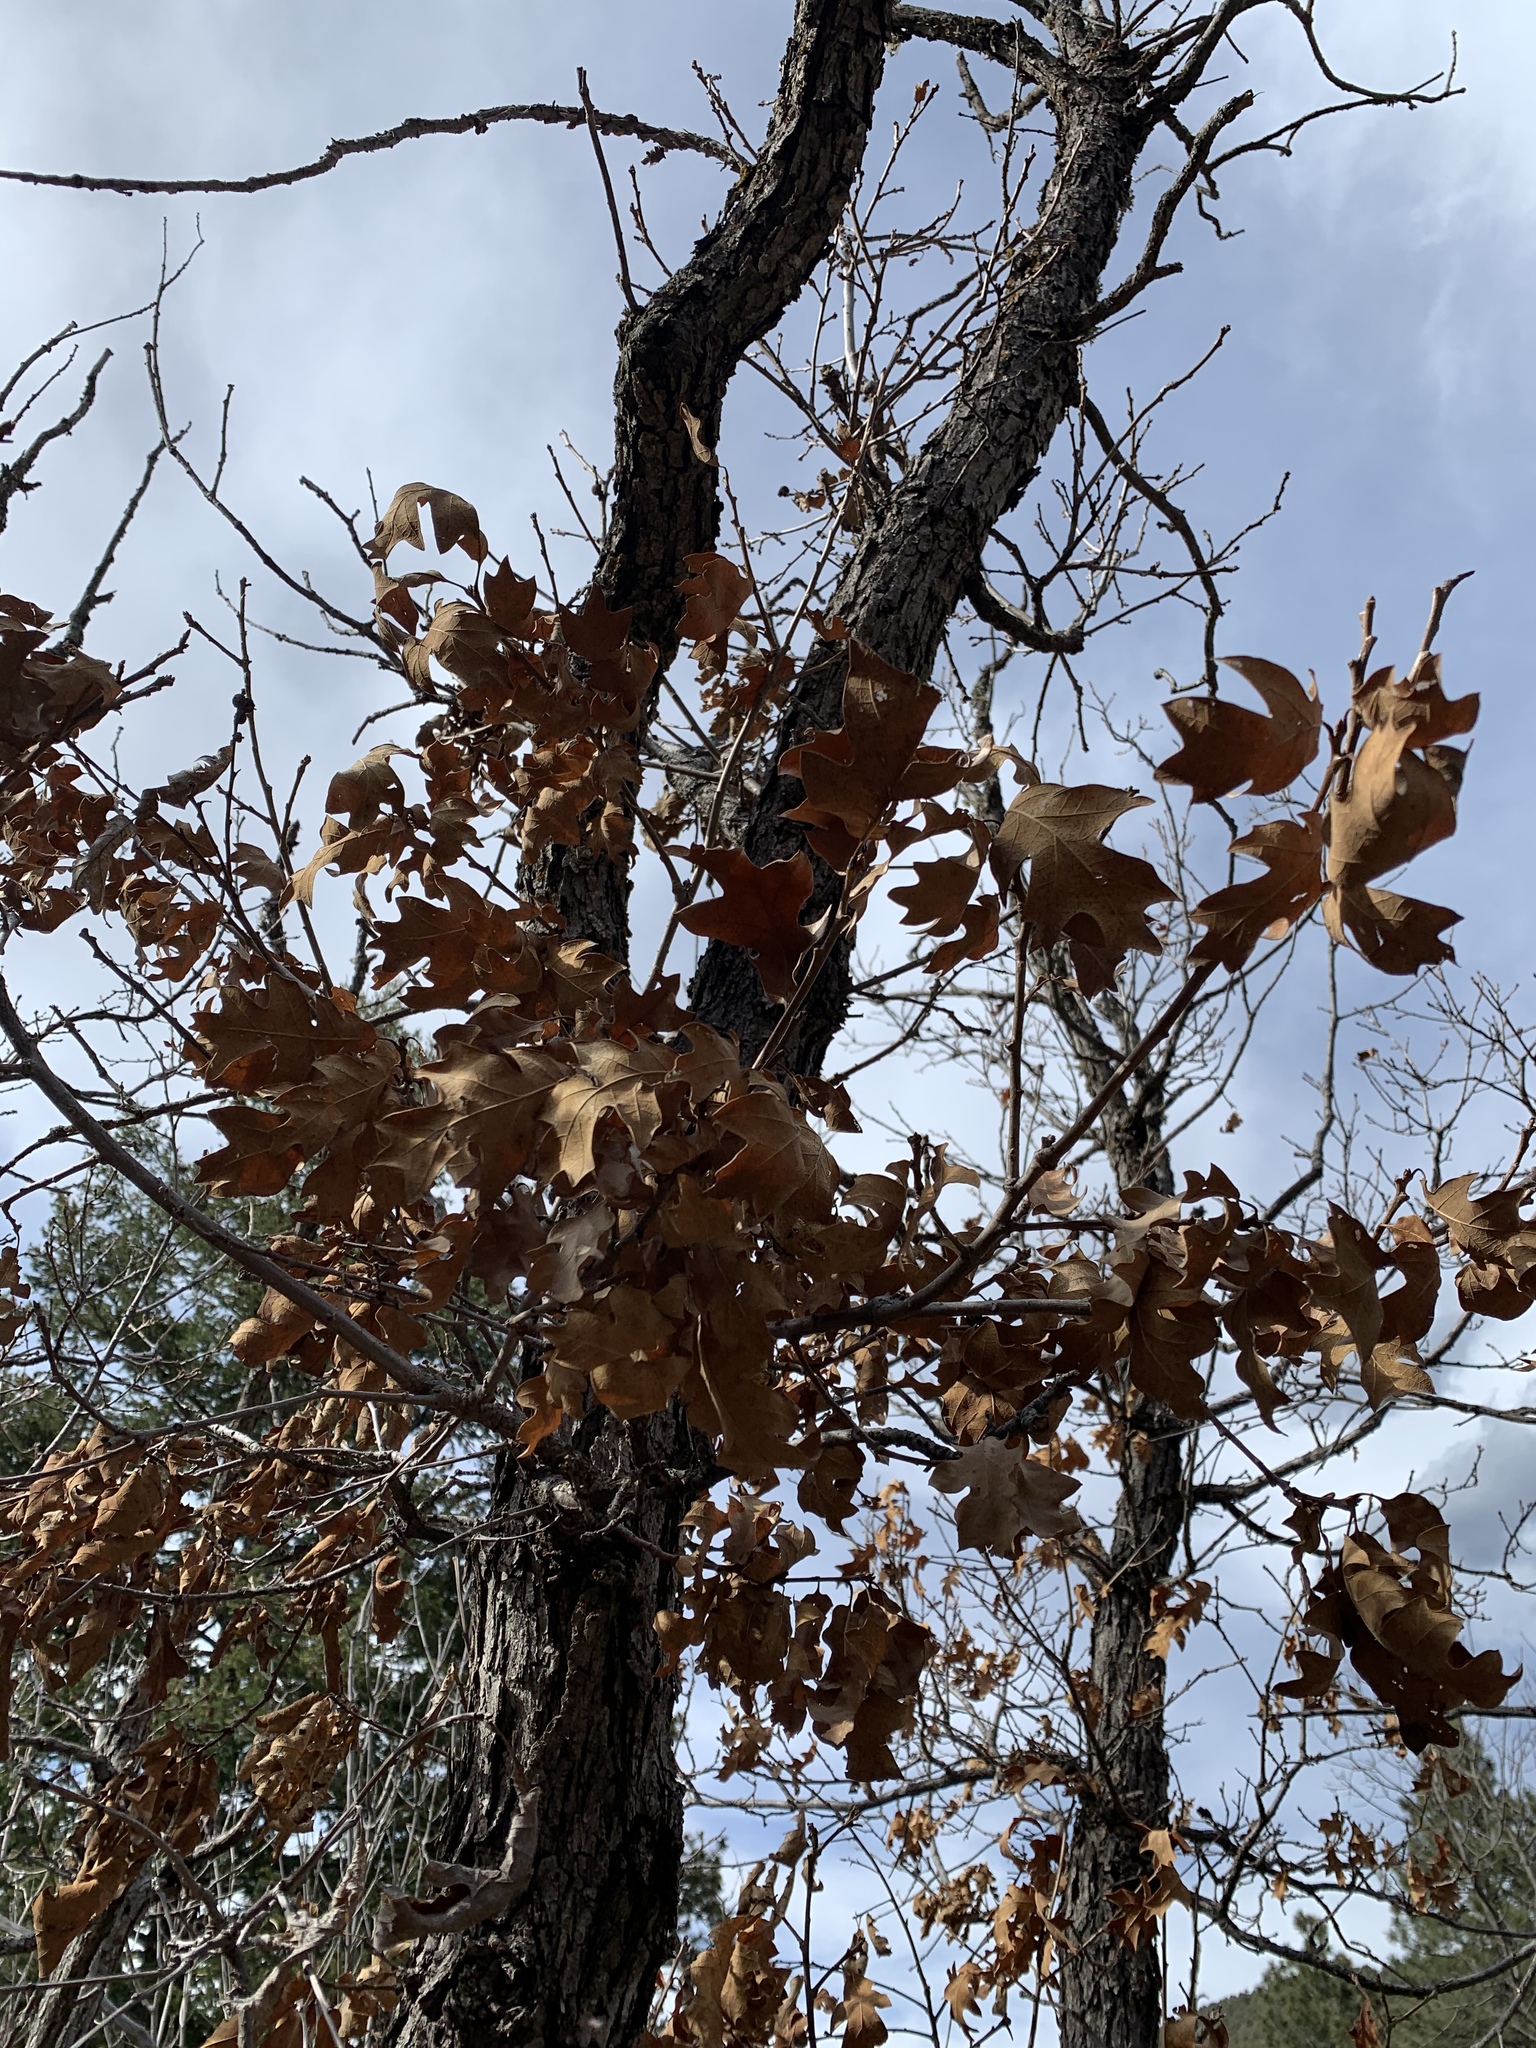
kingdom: Plantae
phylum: Tracheophyta
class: Magnoliopsida
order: Fagales
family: Fagaceae
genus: Quercus
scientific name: Quercus gambelii
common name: Gambel oak
